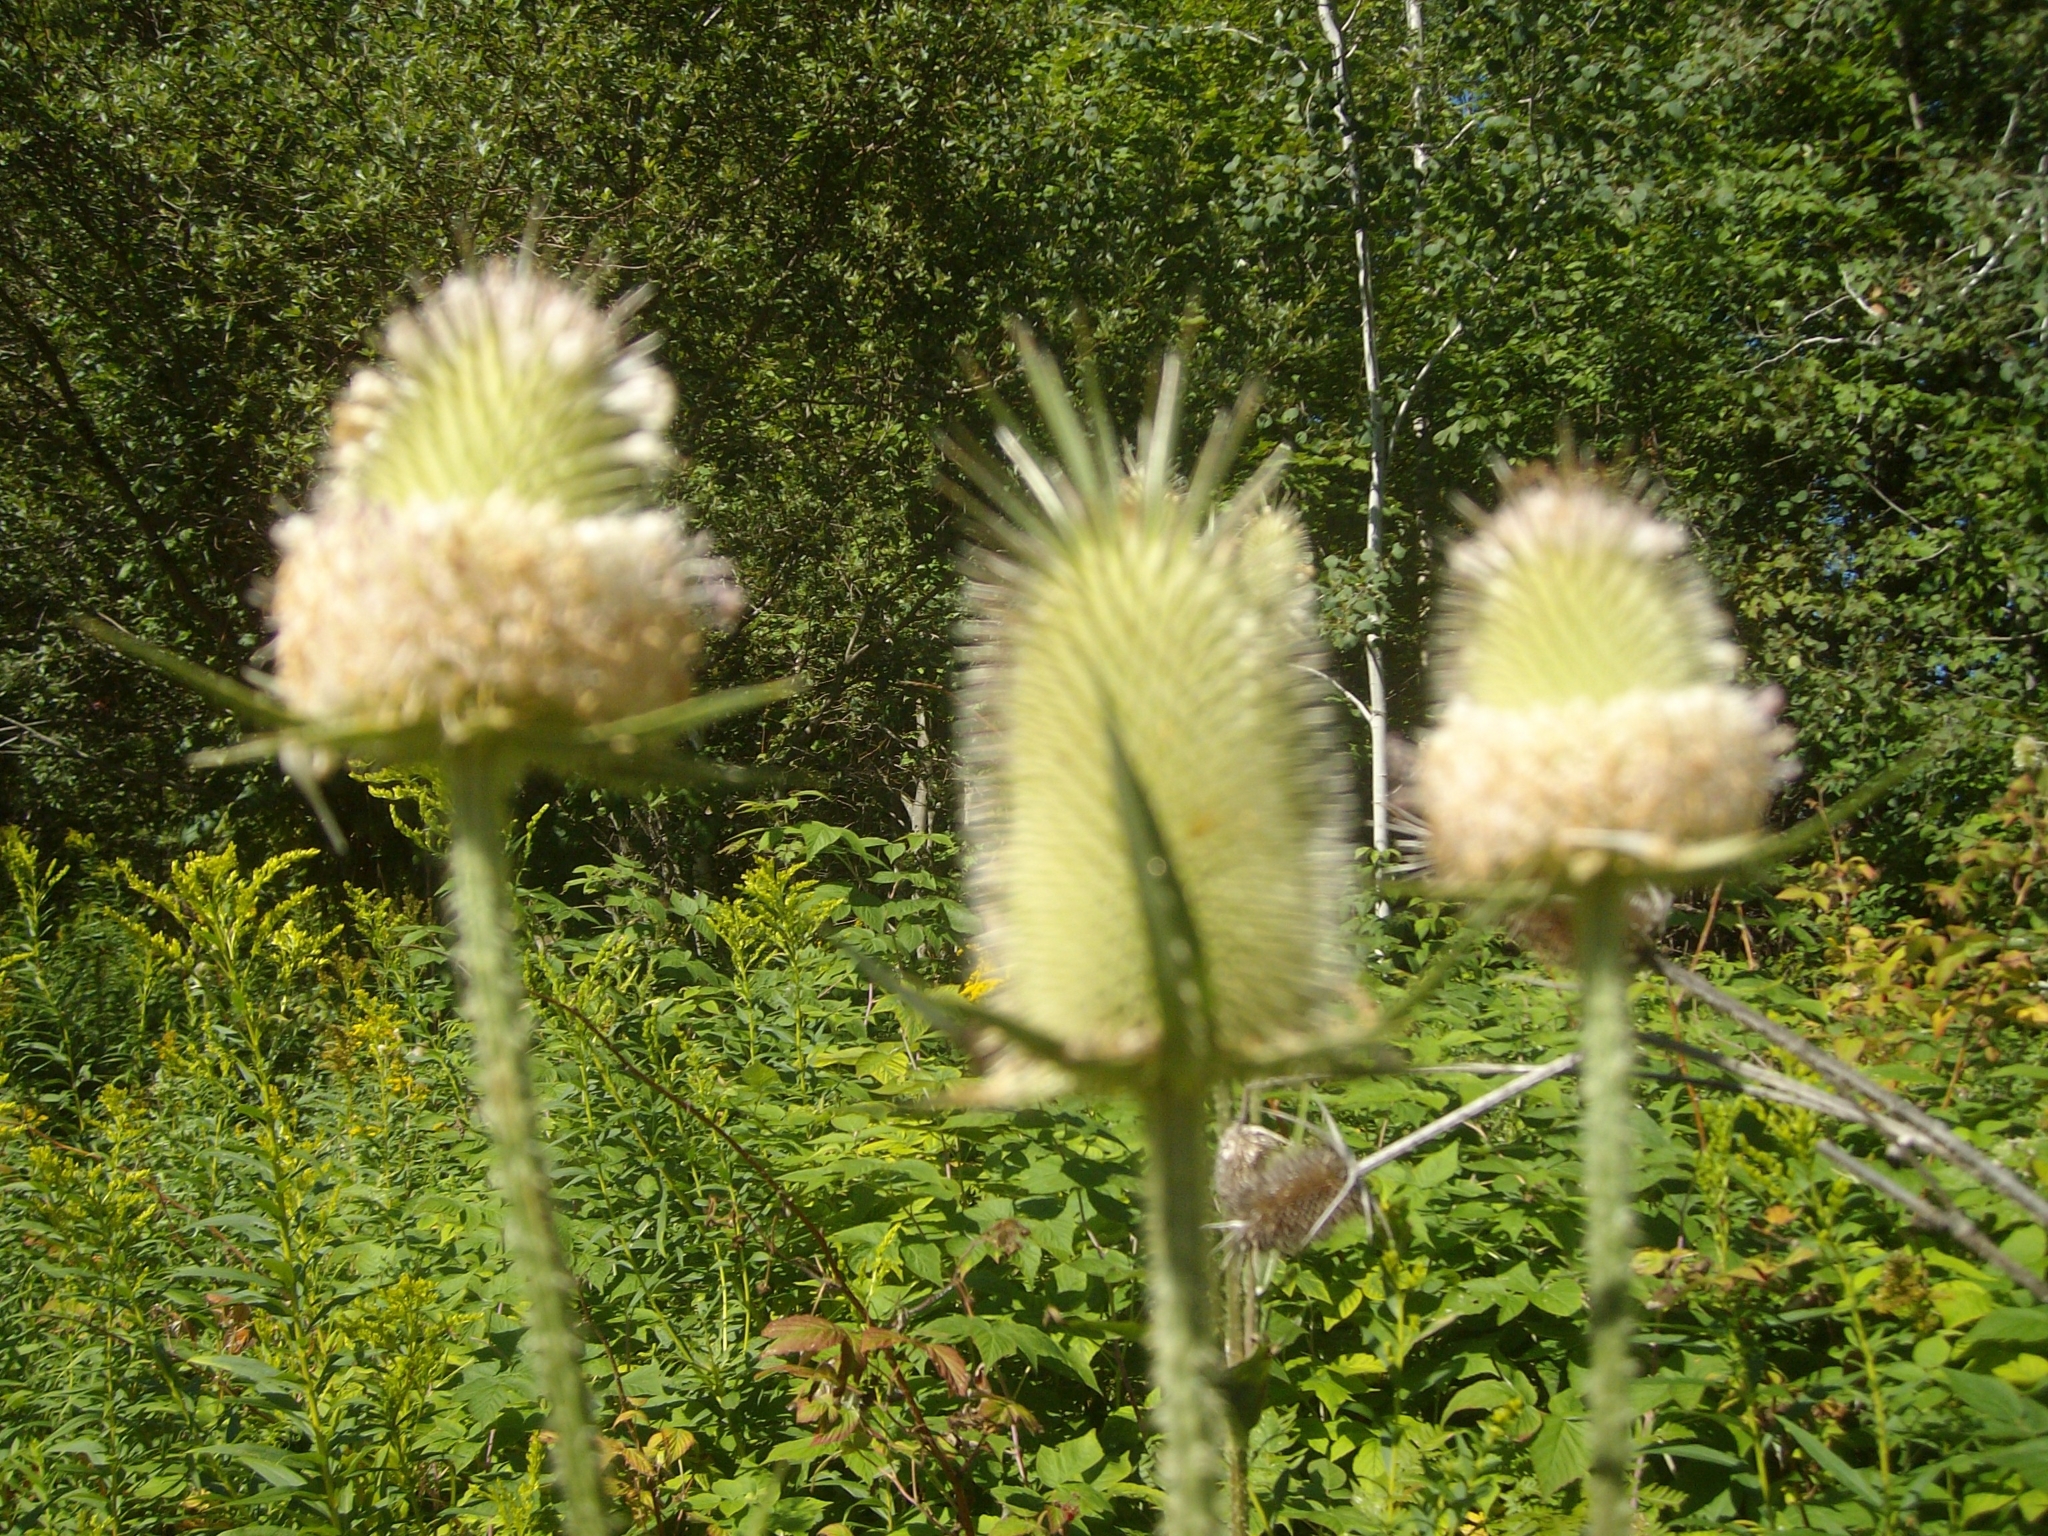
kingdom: Plantae
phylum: Tracheophyta
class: Magnoliopsida
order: Dipsacales
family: Caprifoliaceae
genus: Dipsacus
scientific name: Dipsacus laciniatus
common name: Cut-leaved teasel
